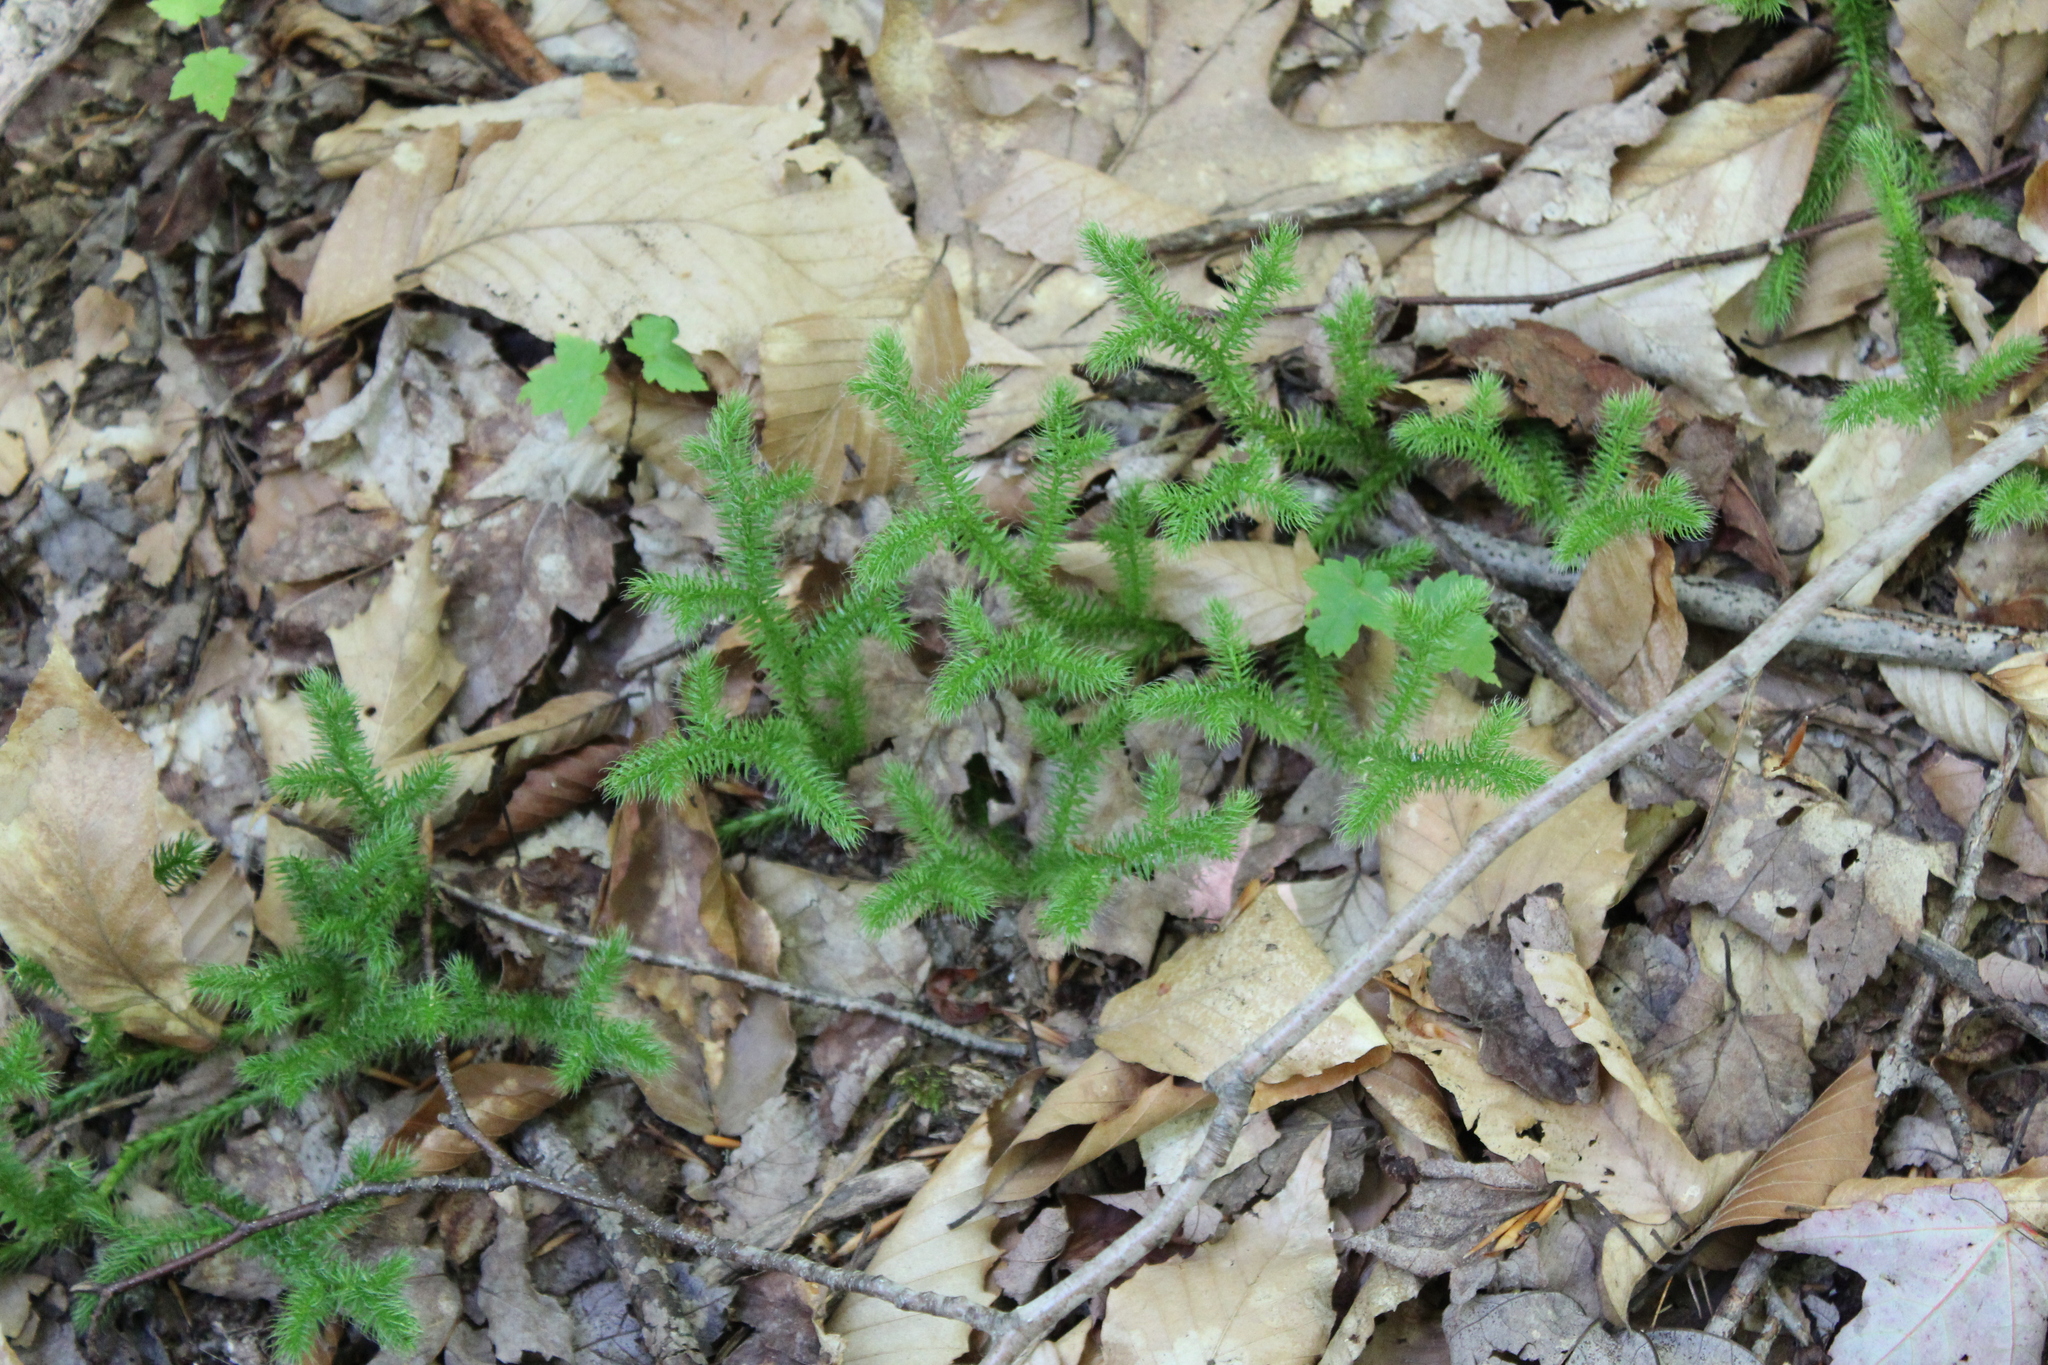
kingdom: Plantae
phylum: Tracheophyta
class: Lycopodiopsida
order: Lycopodiales
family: Lycopodiaceae
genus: Lycopodium
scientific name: Lycopodium clavatum
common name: Stag's-horn clubmoss
